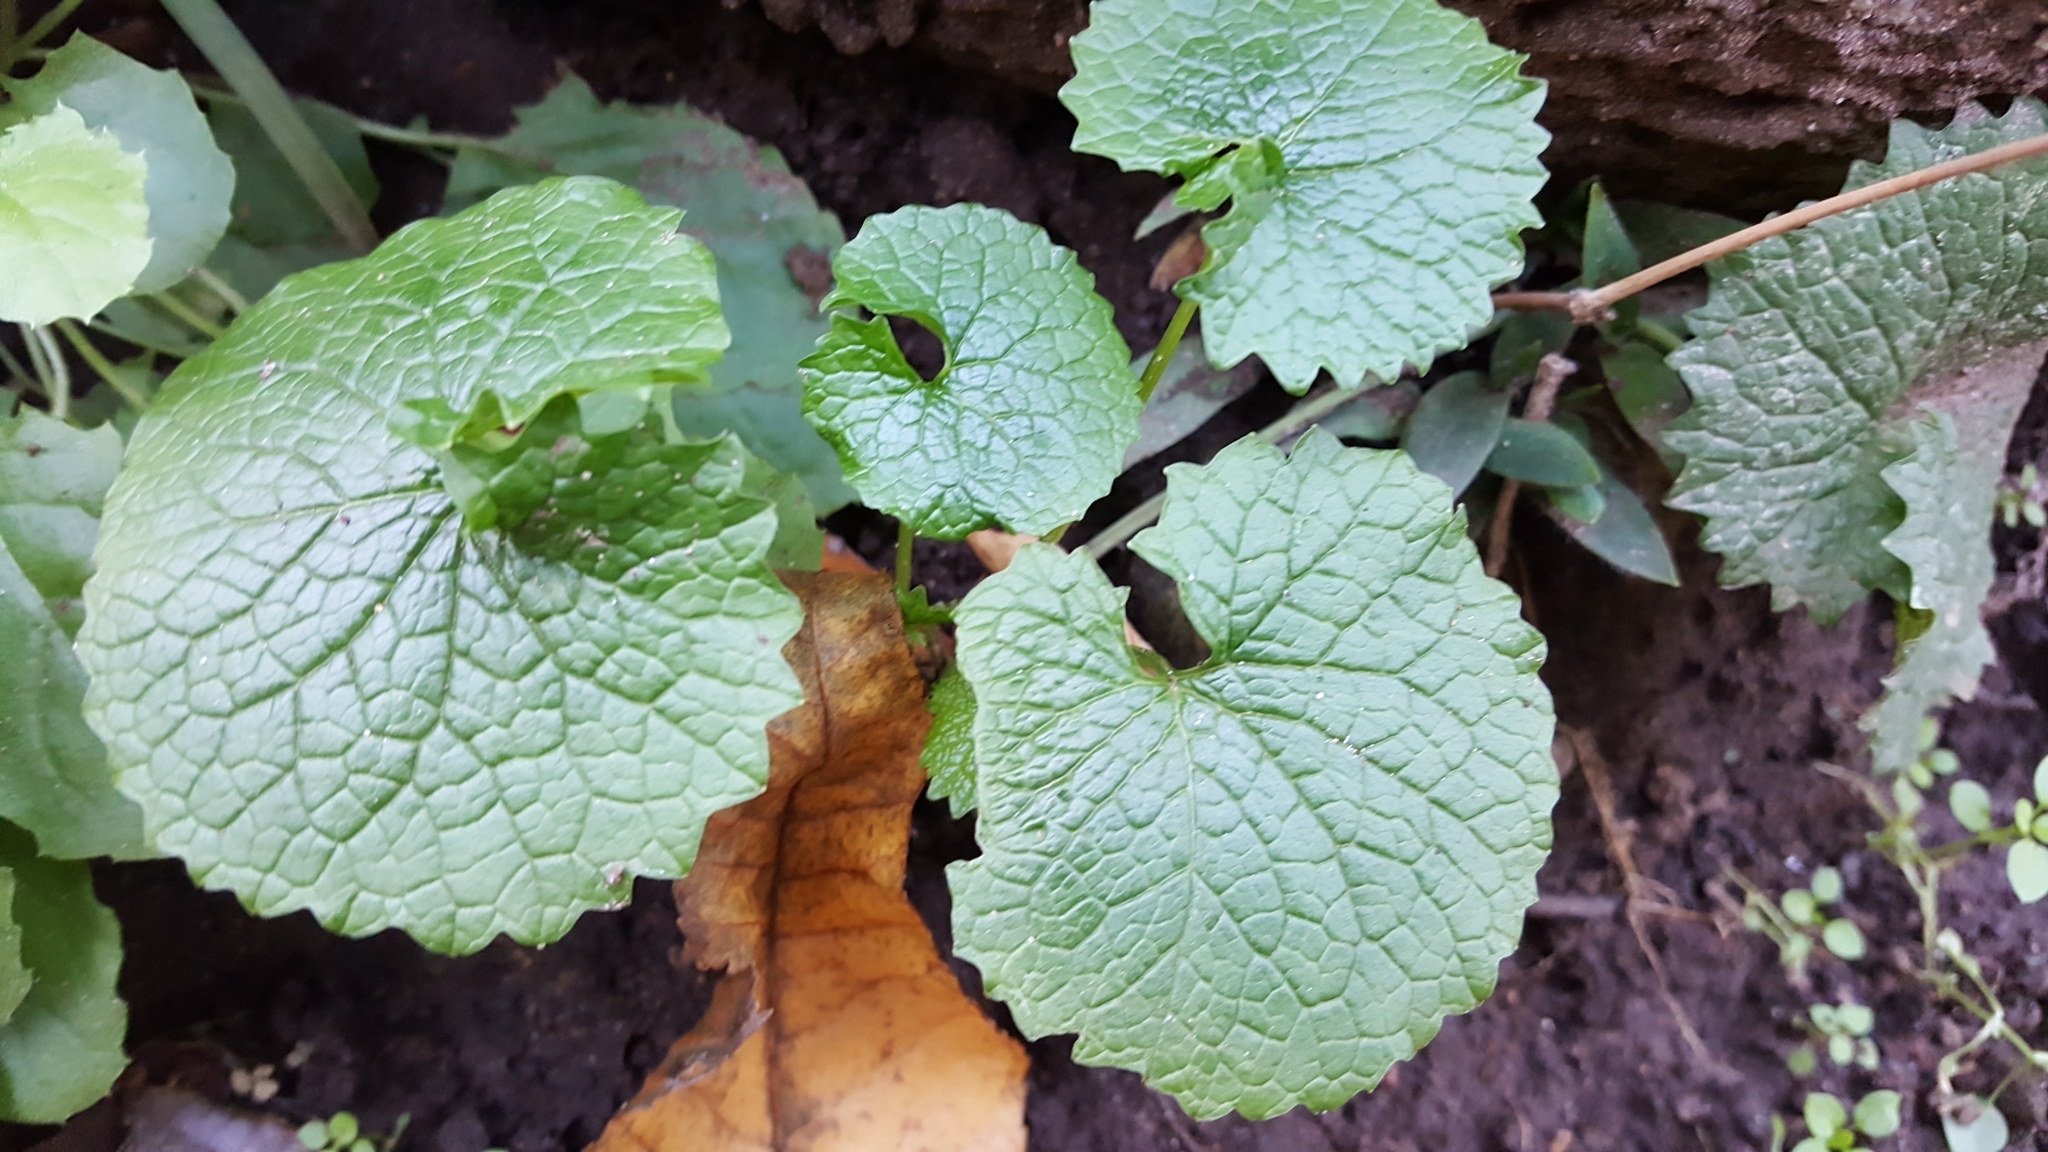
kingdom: Plantae
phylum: Tracheophyta
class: Magnoliopsida
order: Brassicales
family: Brassicaceae
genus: Alliaria
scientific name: Alliaria petiolata
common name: Garlic mustard
